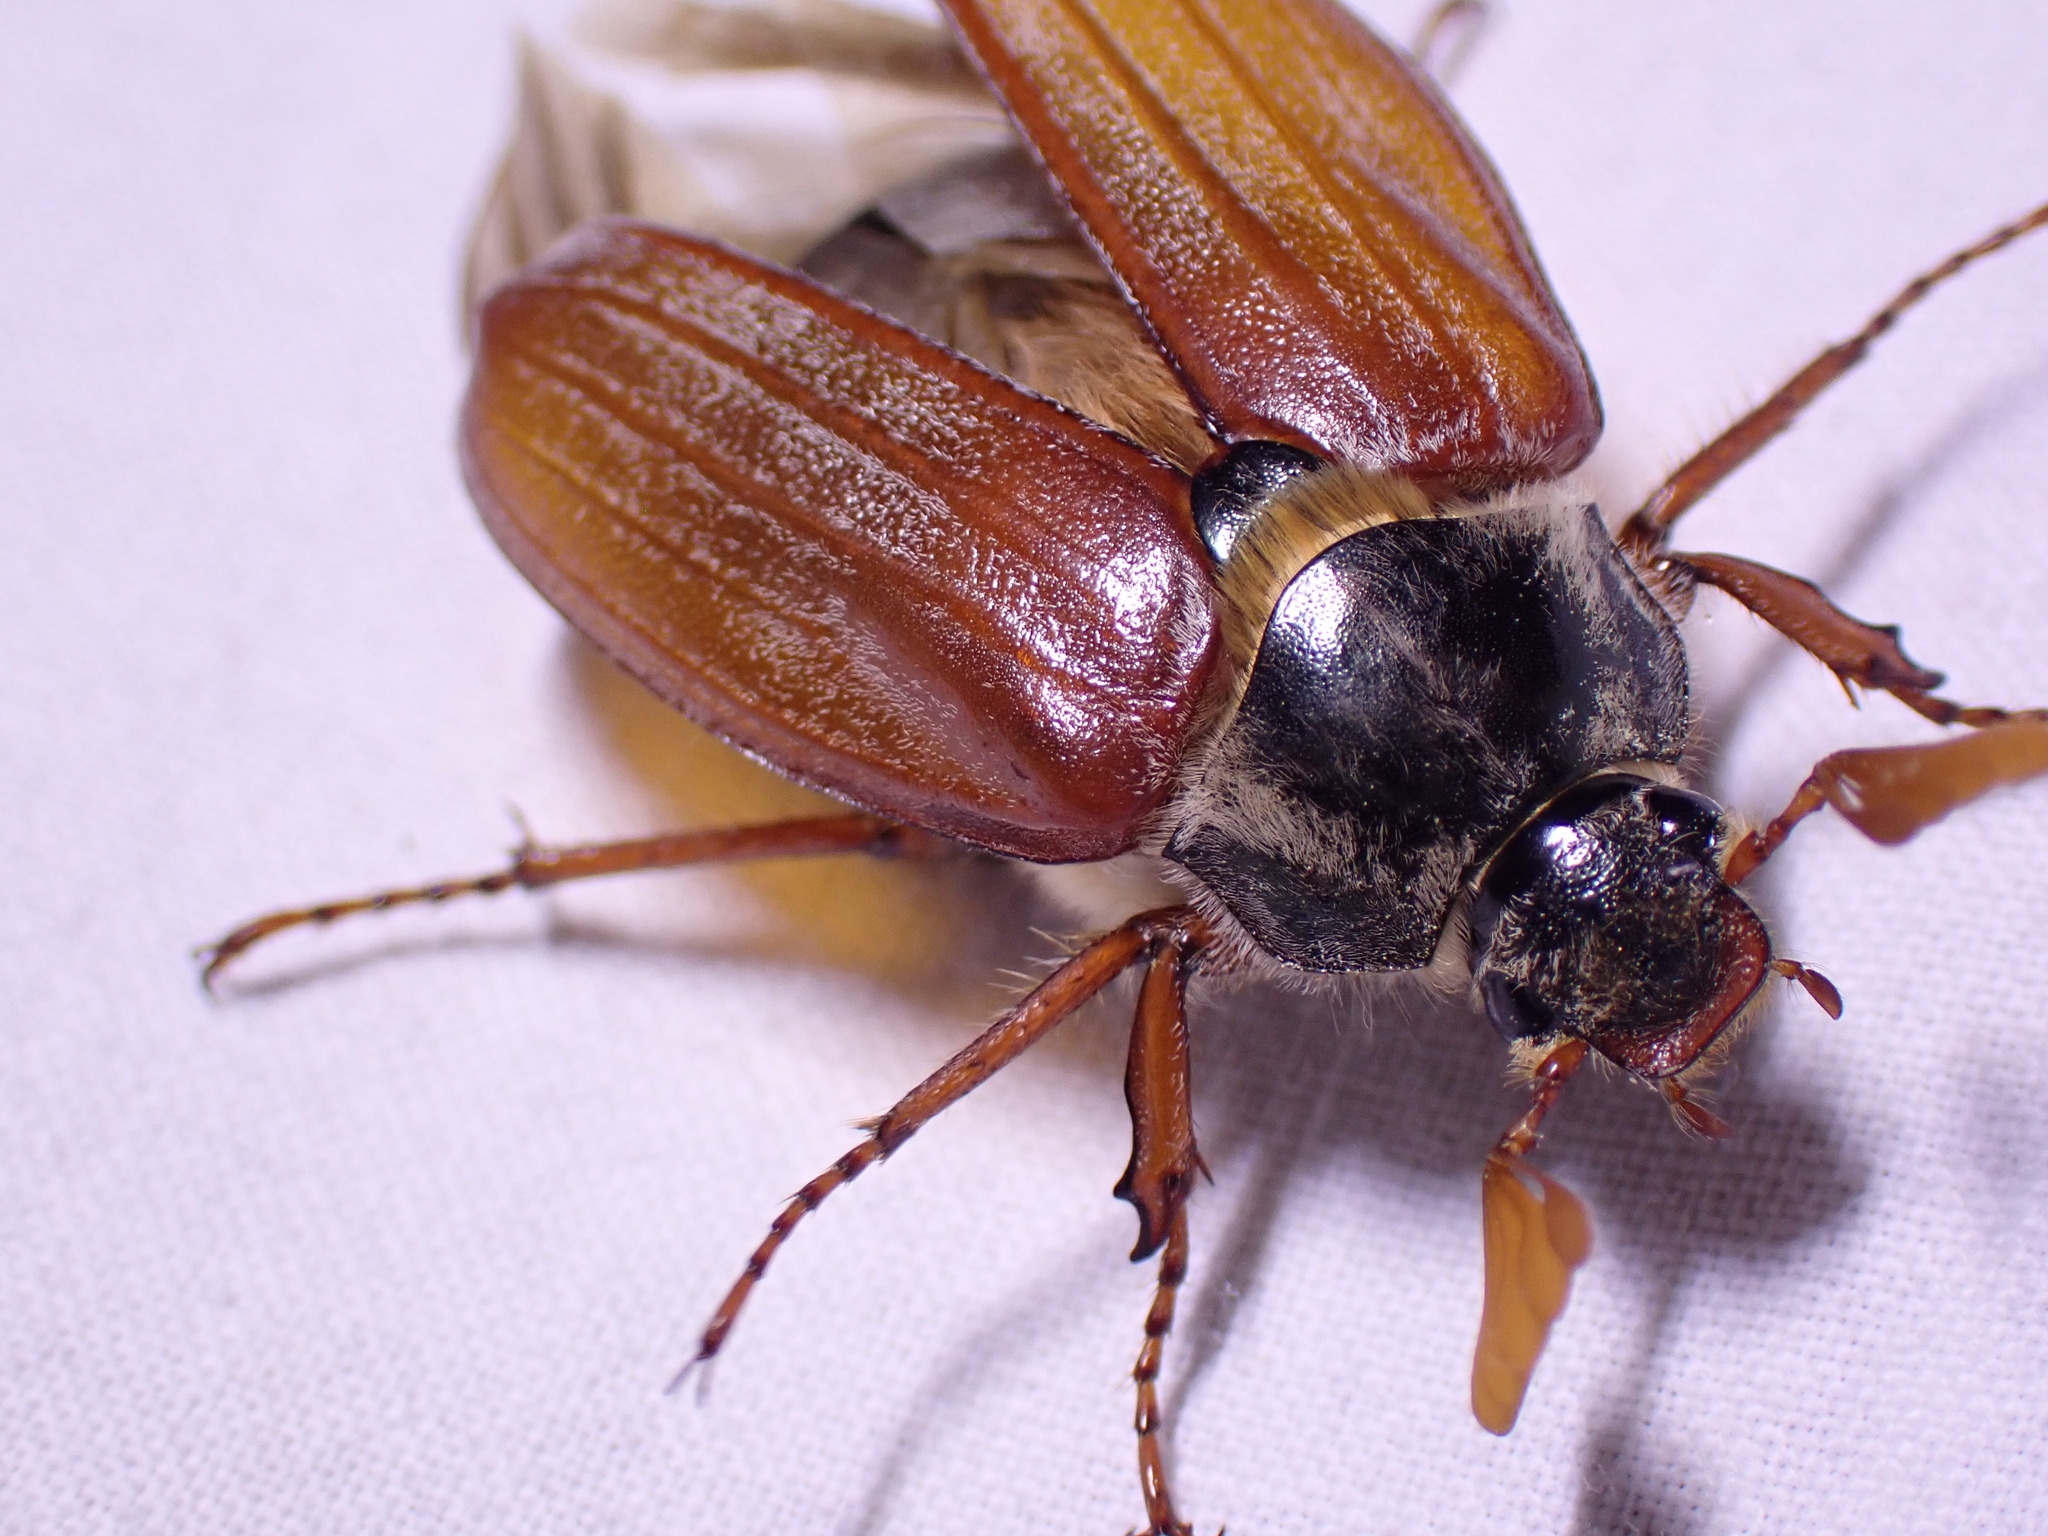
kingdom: Animalia
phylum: Arthropoda
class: Insecta
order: Coleoptera
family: Scarabaeidae
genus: Melolontha
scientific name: Melolontha melolontha
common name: Cockchafer maybeetle
